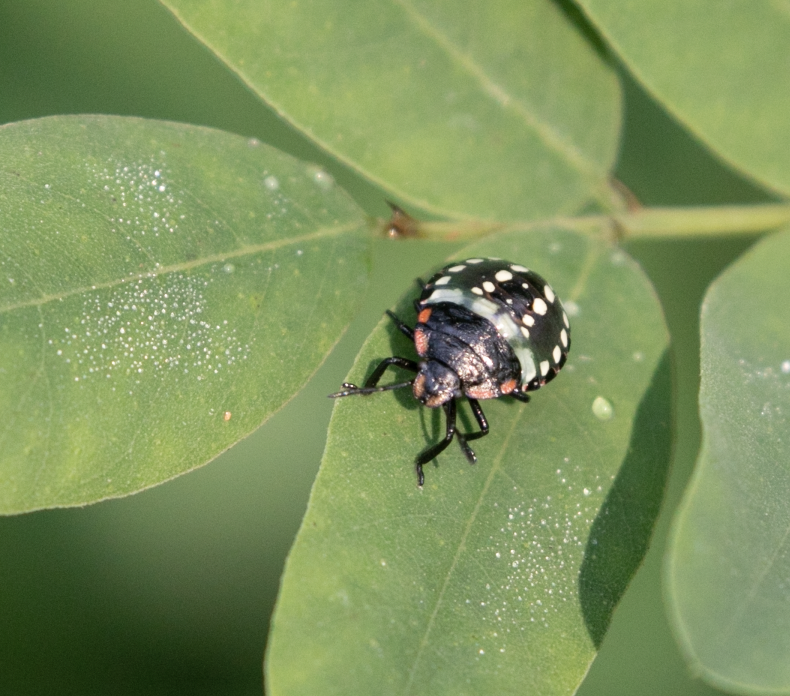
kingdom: Animalia
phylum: Arthropoda
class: Insecta
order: Hemiptera
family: Pentatomidae
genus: Nezara
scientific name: Nezara viridula
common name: Southern green stink bug
